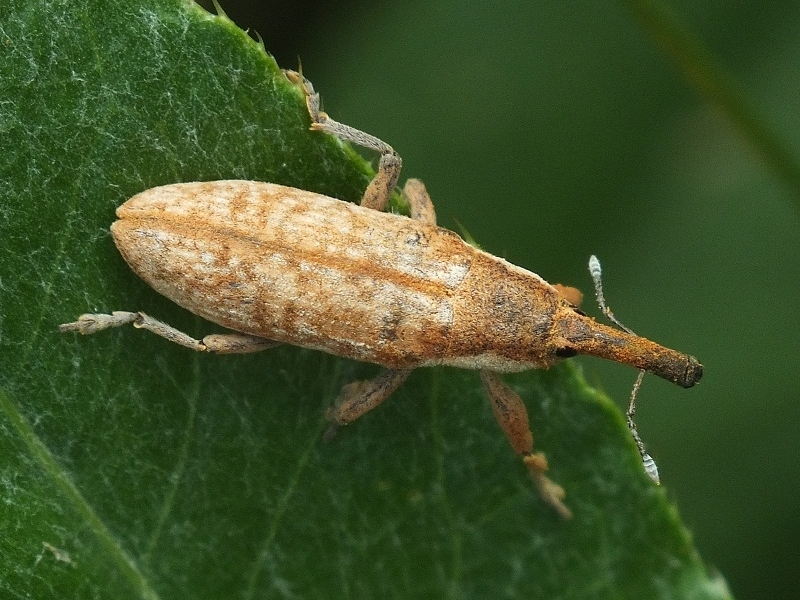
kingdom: Animalia
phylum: Arthropoda
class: Insecta
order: Coleoptera
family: Curculionidae
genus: Lixus
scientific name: Lixus pulverulentus
